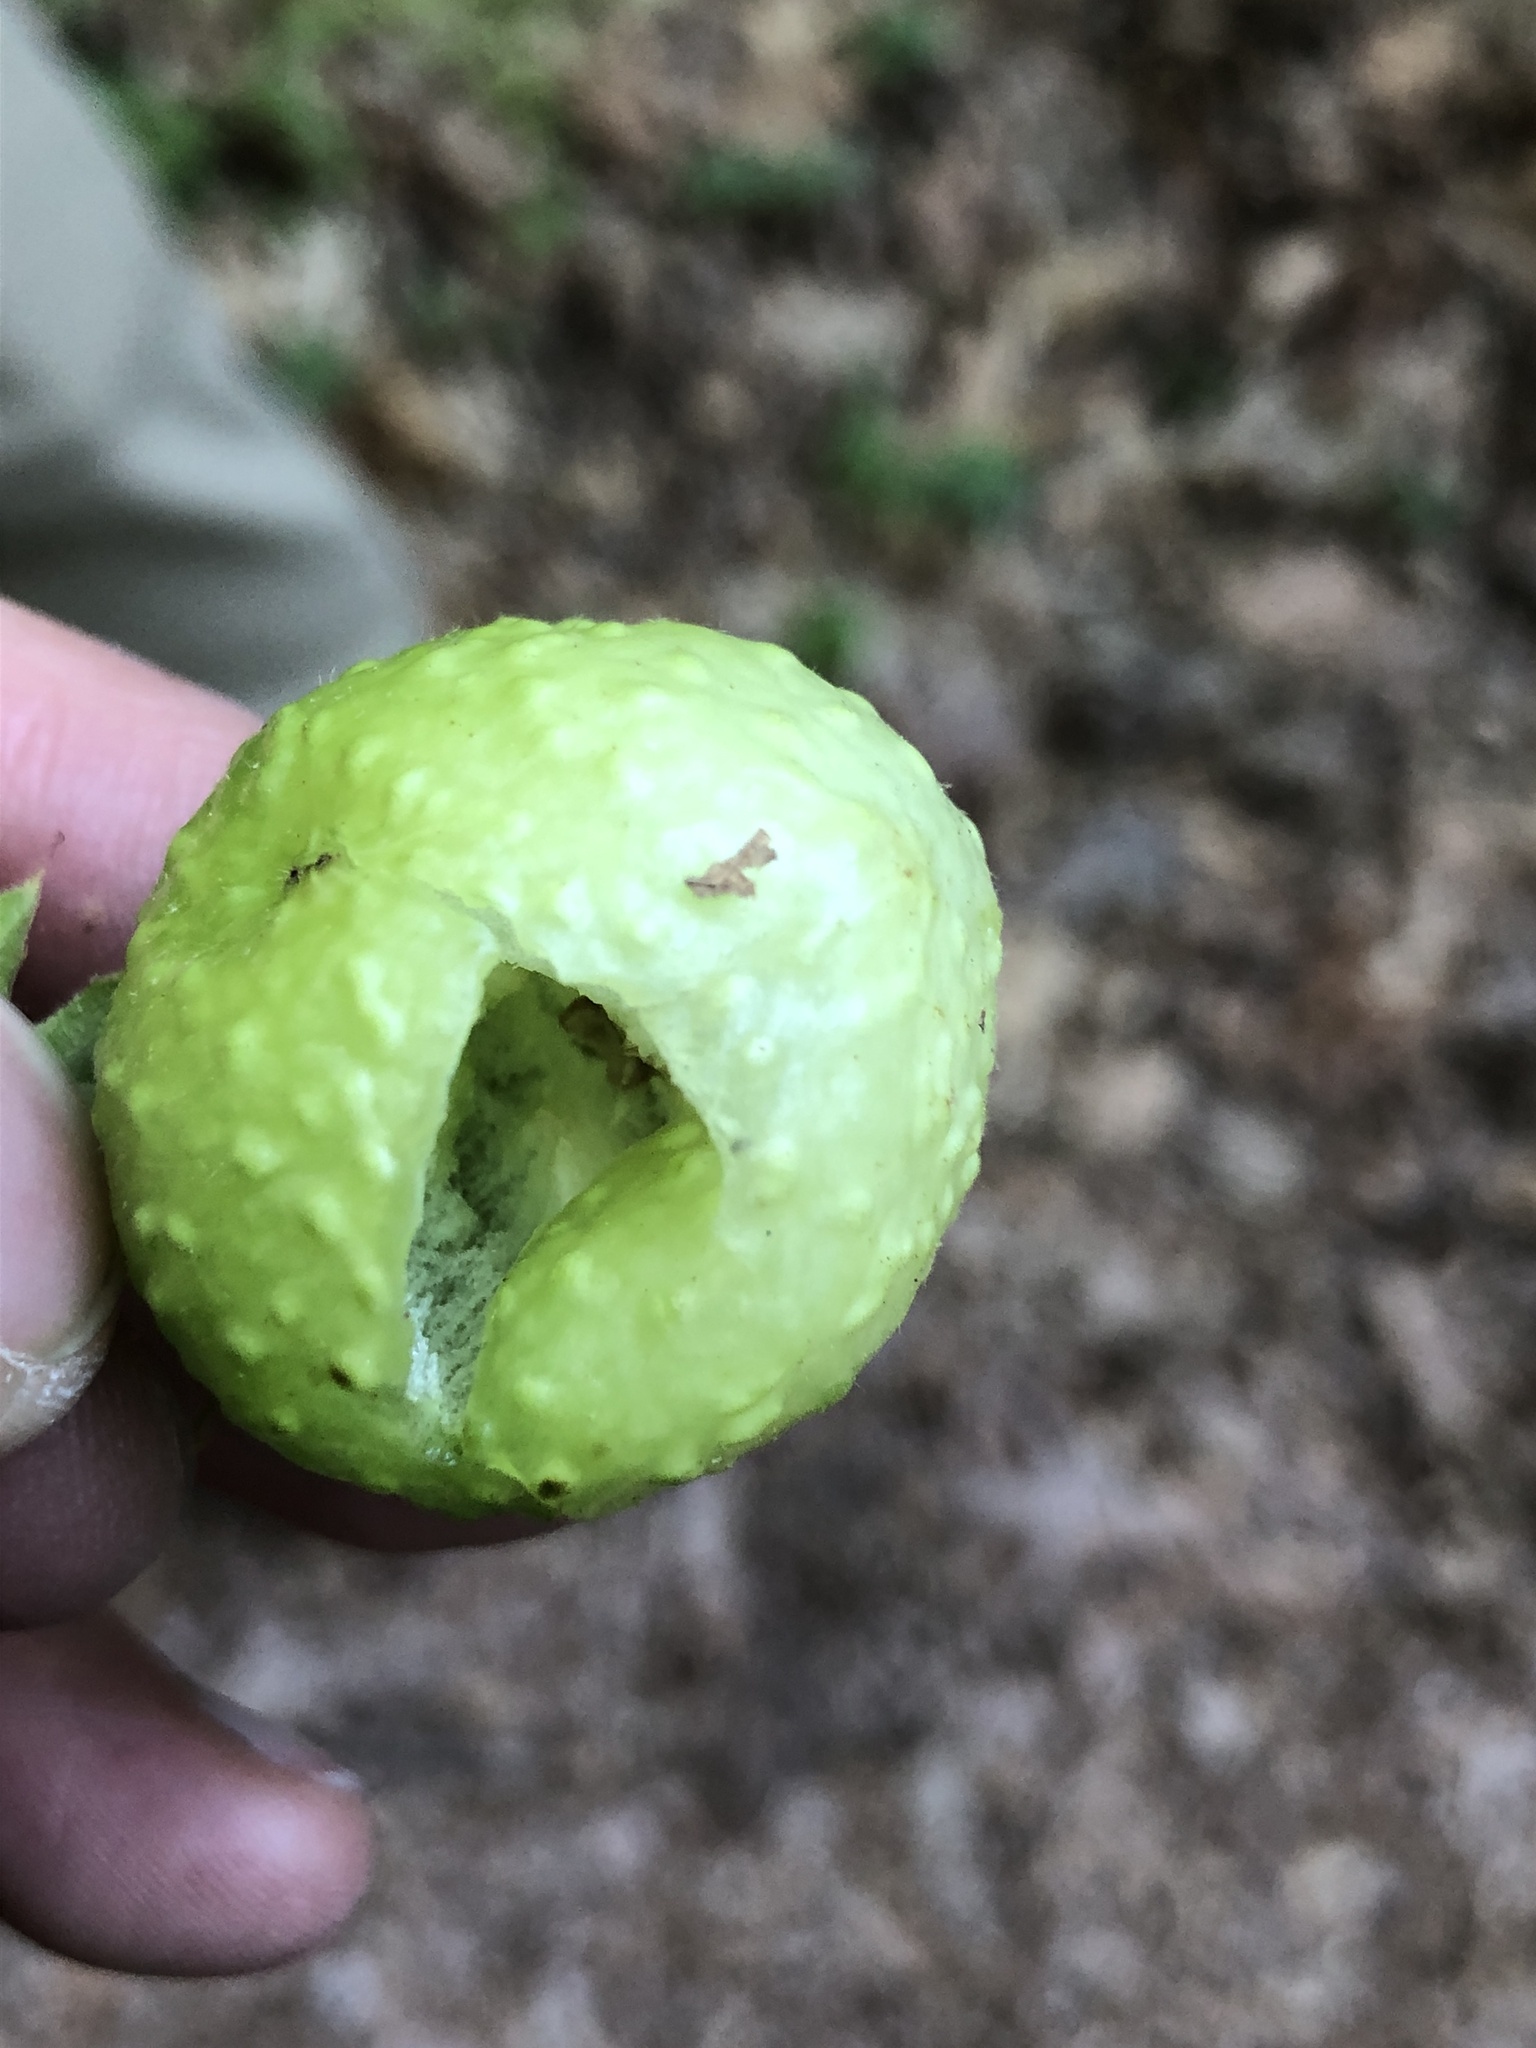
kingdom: Animalia
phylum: Arthropoda
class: Insecta
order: Hymenoptera
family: Cynipidae
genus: Amphibolips
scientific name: Amphibolips
